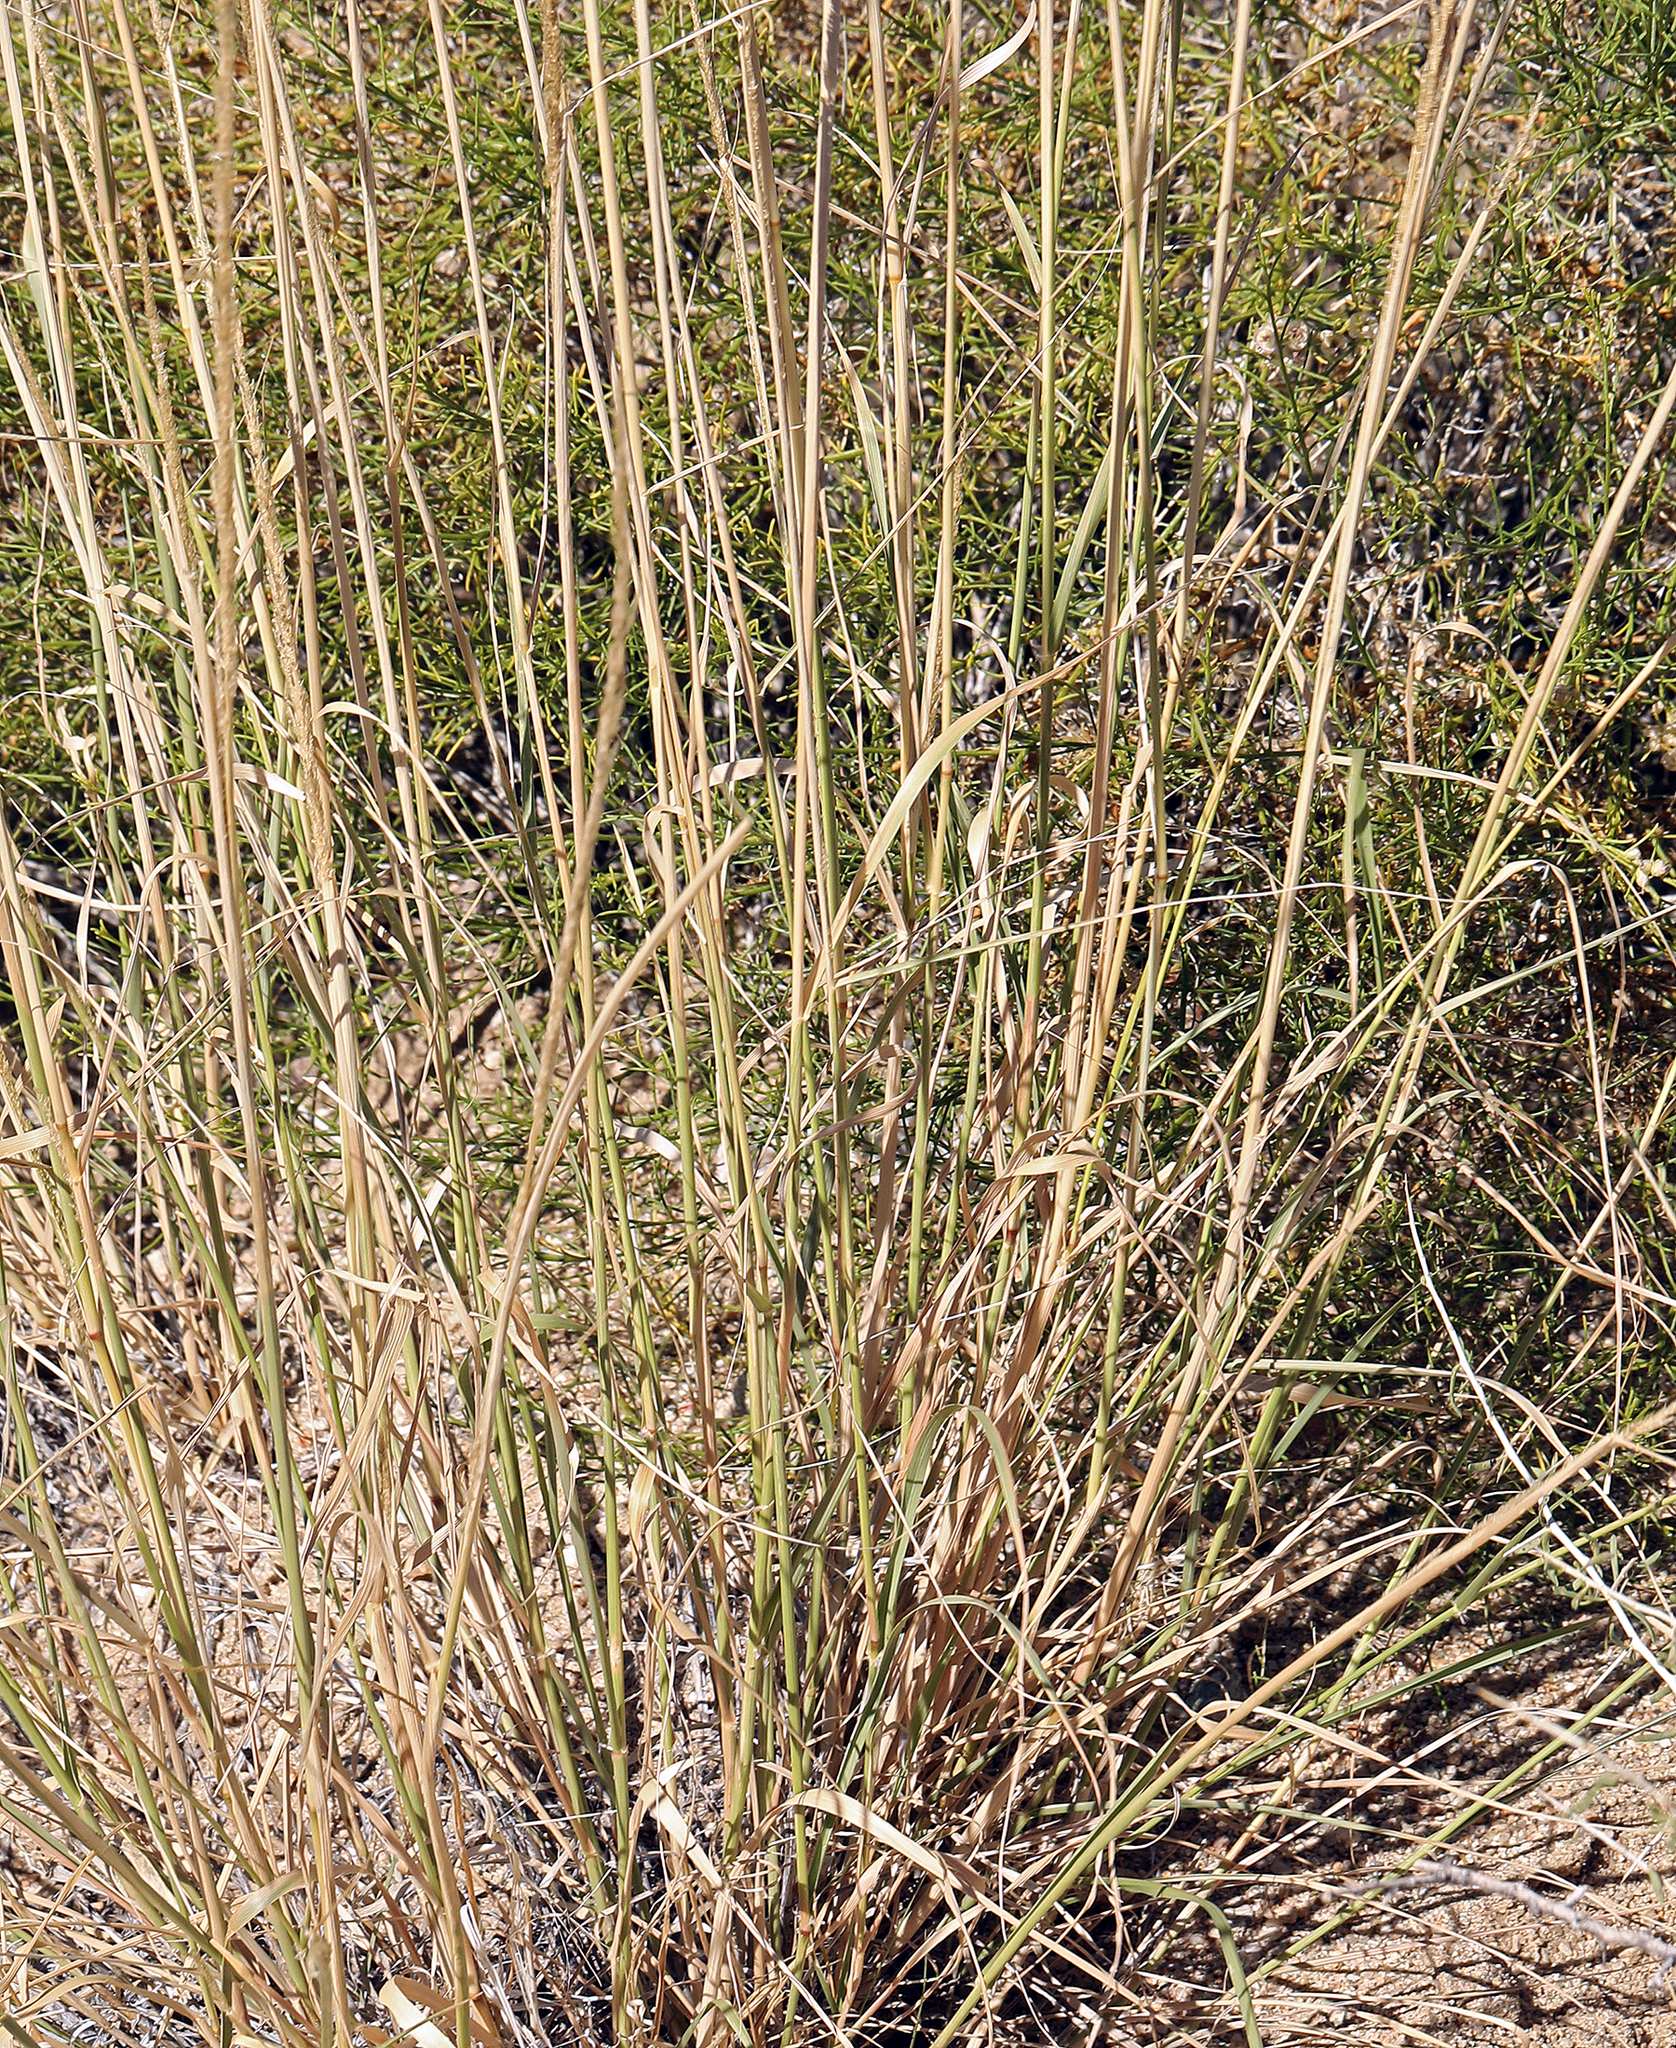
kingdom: Plantae
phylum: Tracheophyta
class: Liliopsida
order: Poales
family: Poaceae
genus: Muhlenbergia
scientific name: Muhlenbergia rigens
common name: Deer grass
